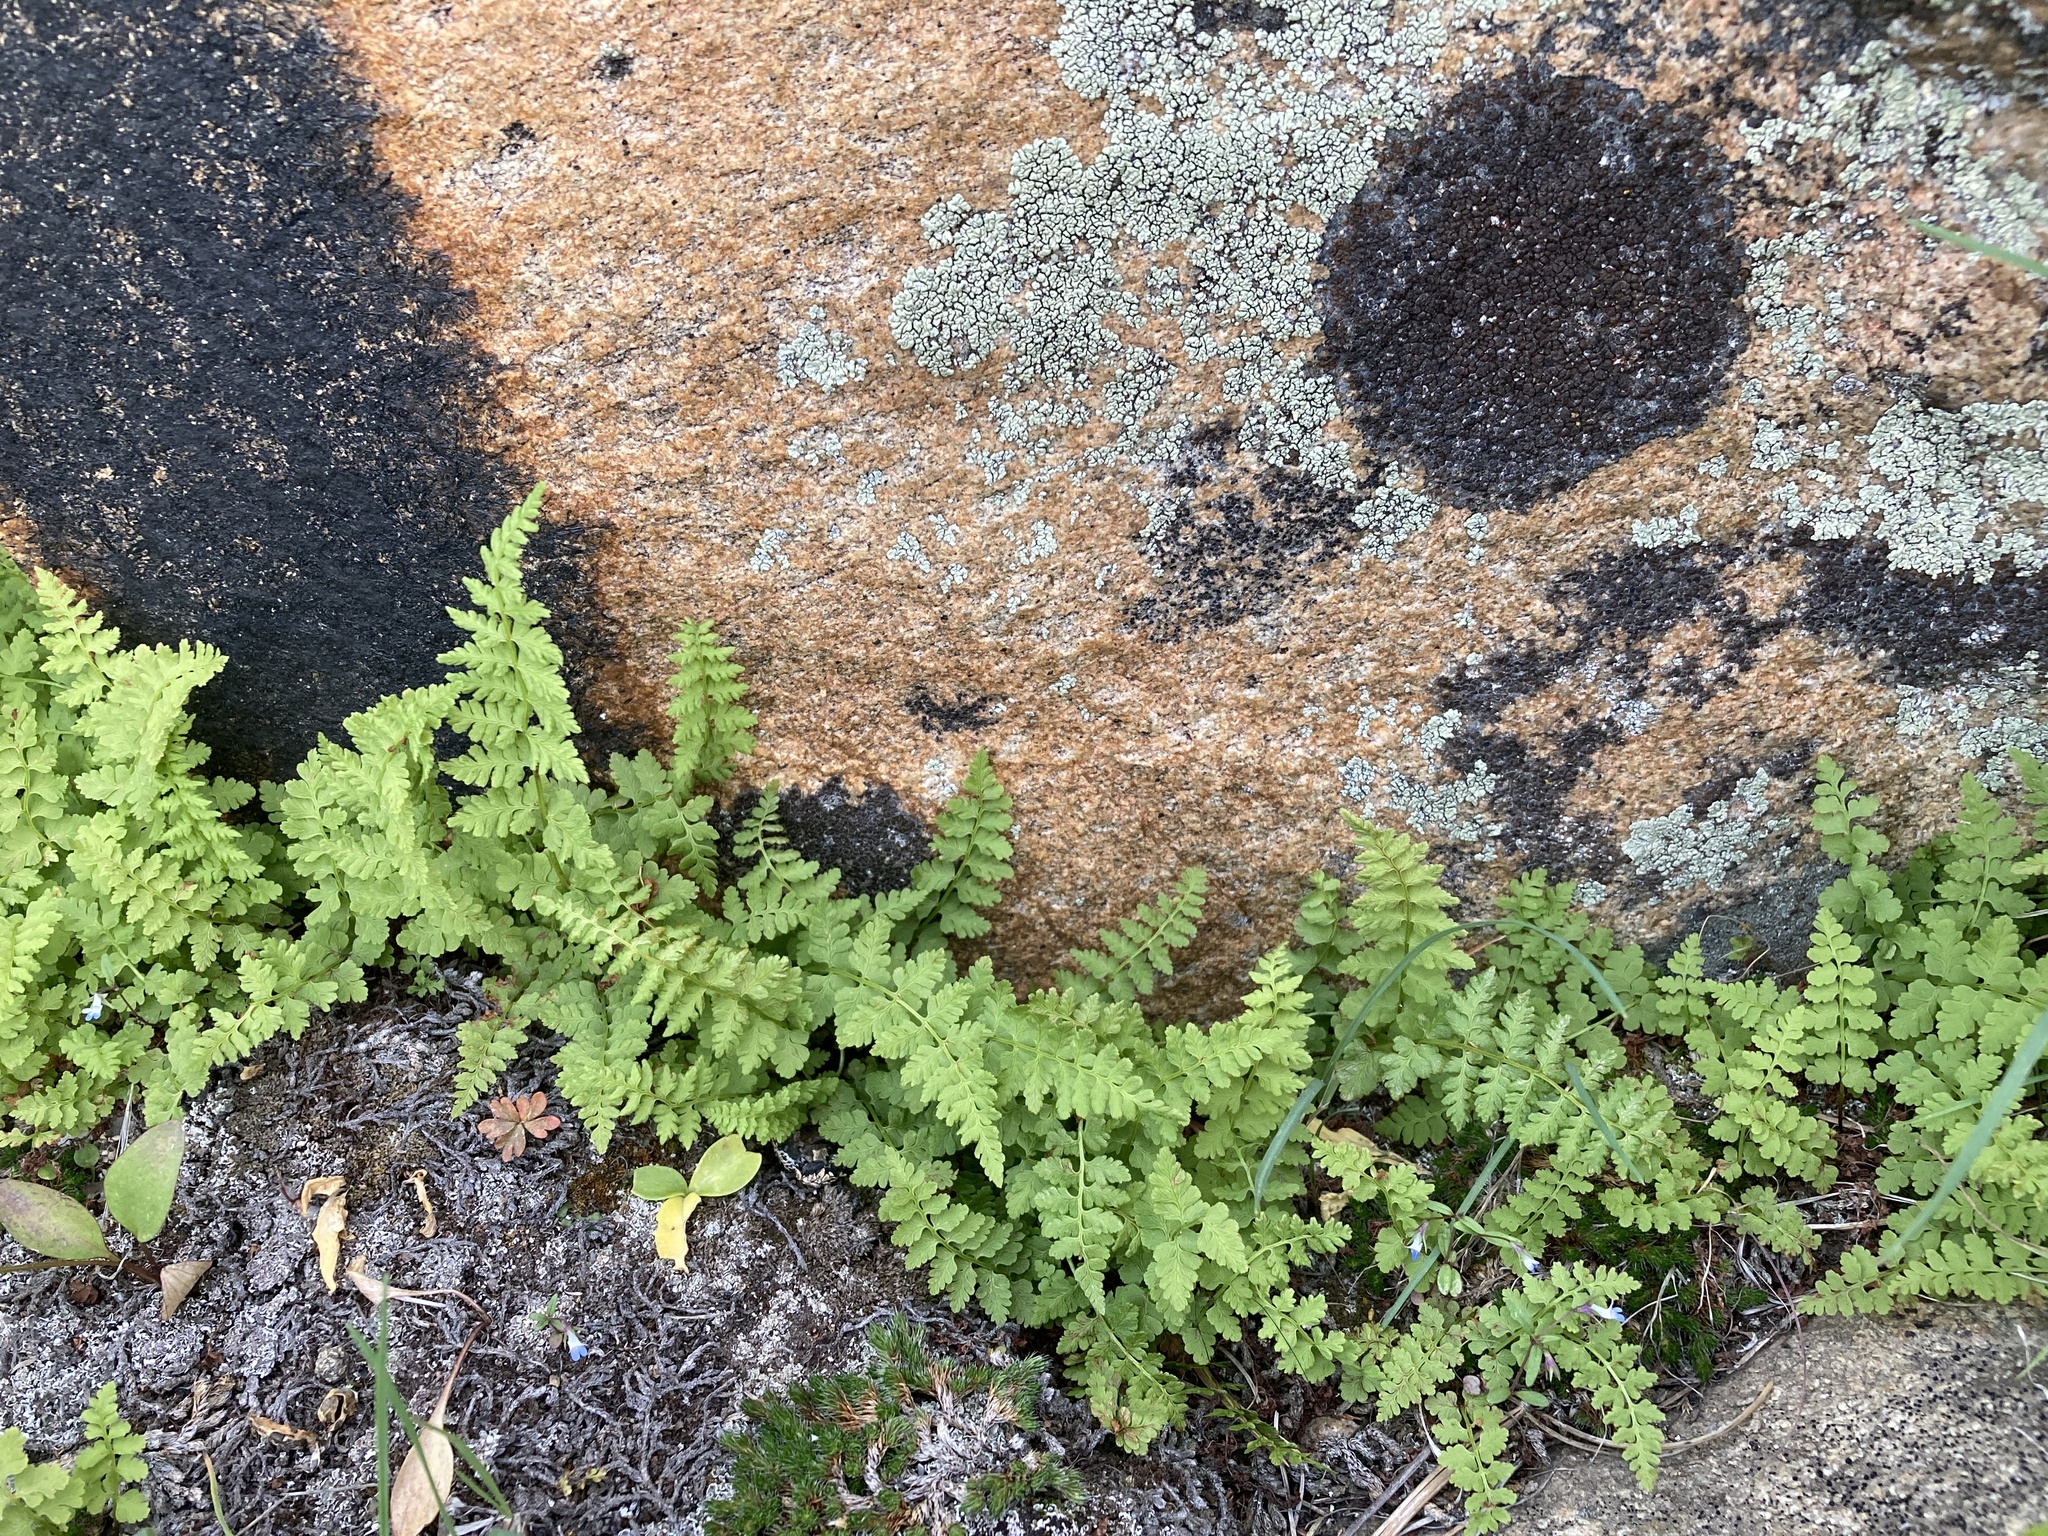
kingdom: Plantae
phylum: Tracheophyta
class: Polypodiopsida
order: Polypodiales
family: Cystopteridaceae
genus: Cystopteris
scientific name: Cystopteris fragilis
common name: Brittle bladder fern
